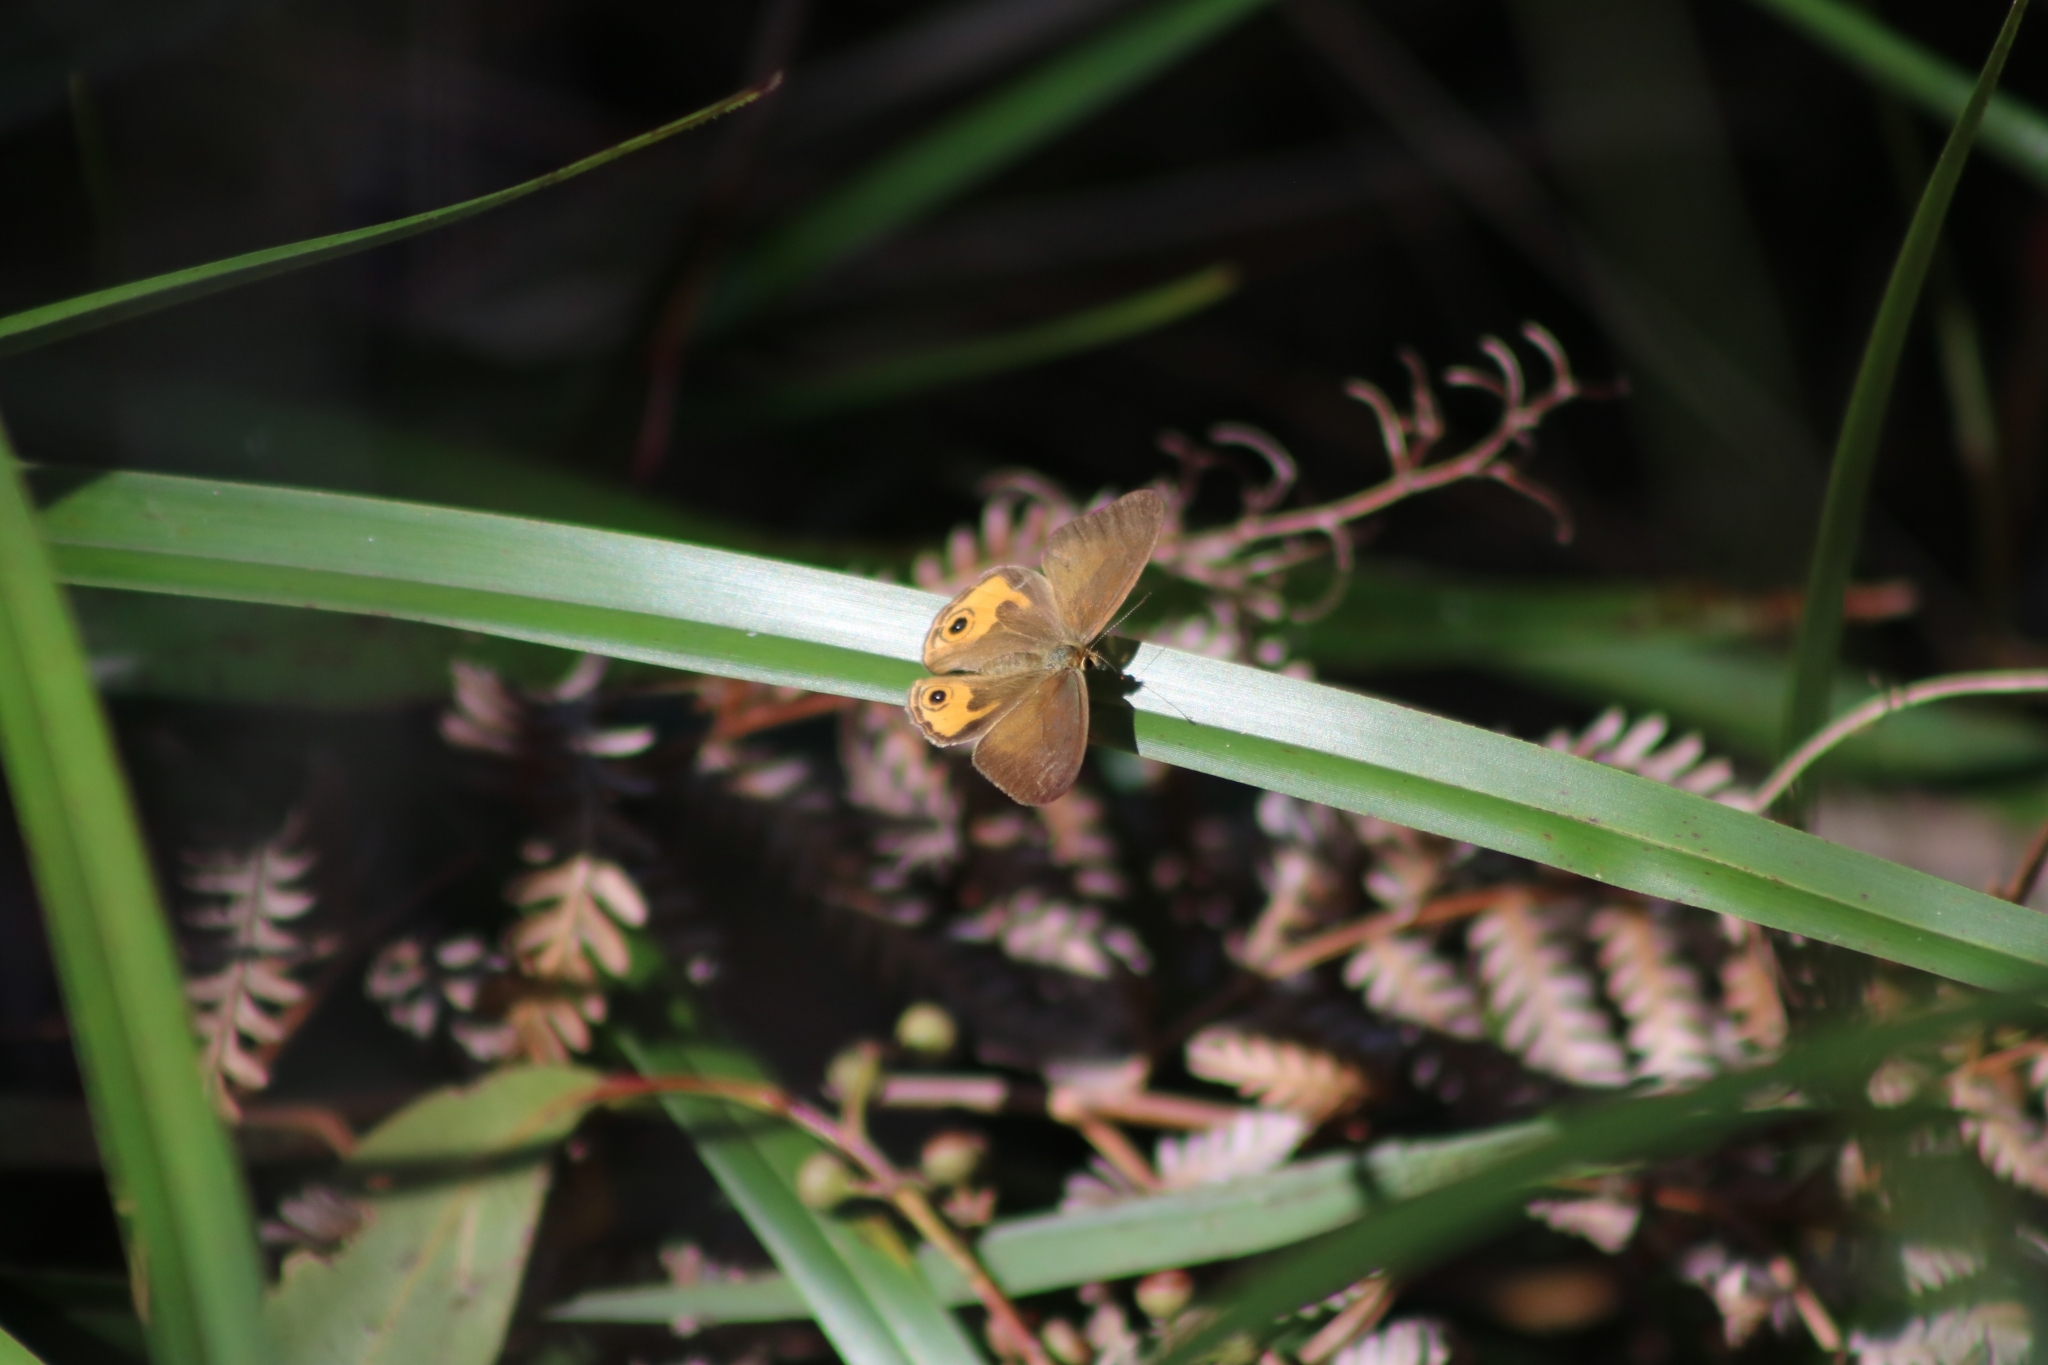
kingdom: Animalia
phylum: Arthropoda
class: Insecta
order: Lepidoptera
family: Nymphalidae
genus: Hypocysta
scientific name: Hypocysta metirius
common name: Brown ringlet
